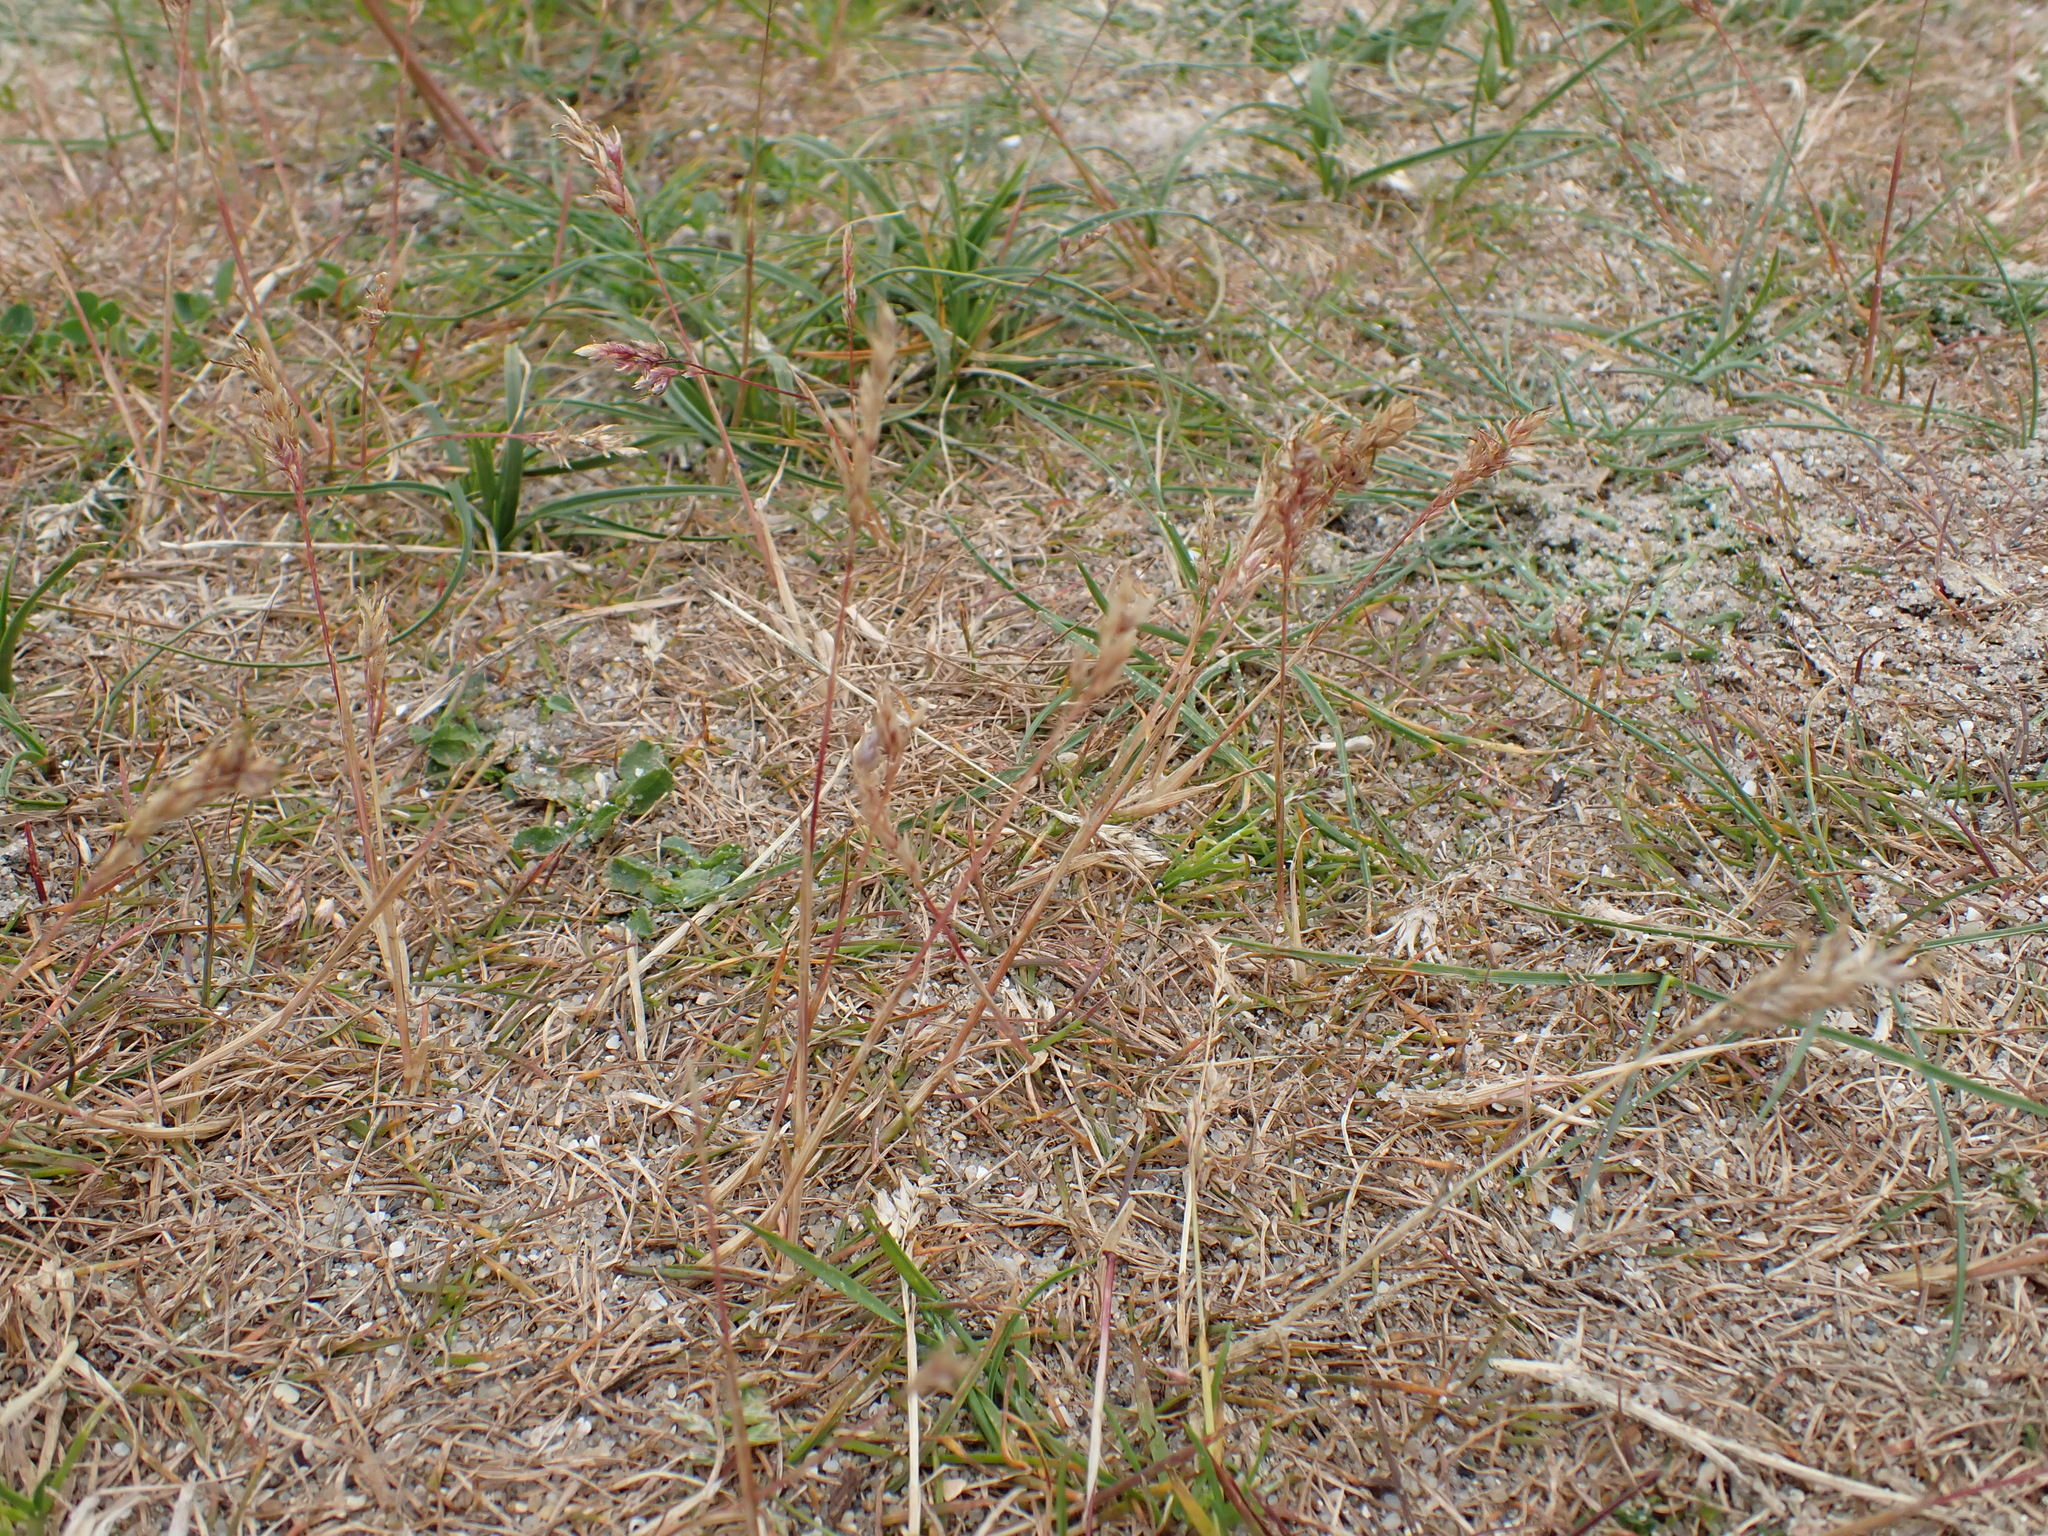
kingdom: Plantae
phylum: Tracheophyta
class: Liliopsida
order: Poales
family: Poaceae
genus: Poa
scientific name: Poa bulbosa
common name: Bulbous bluegrass
